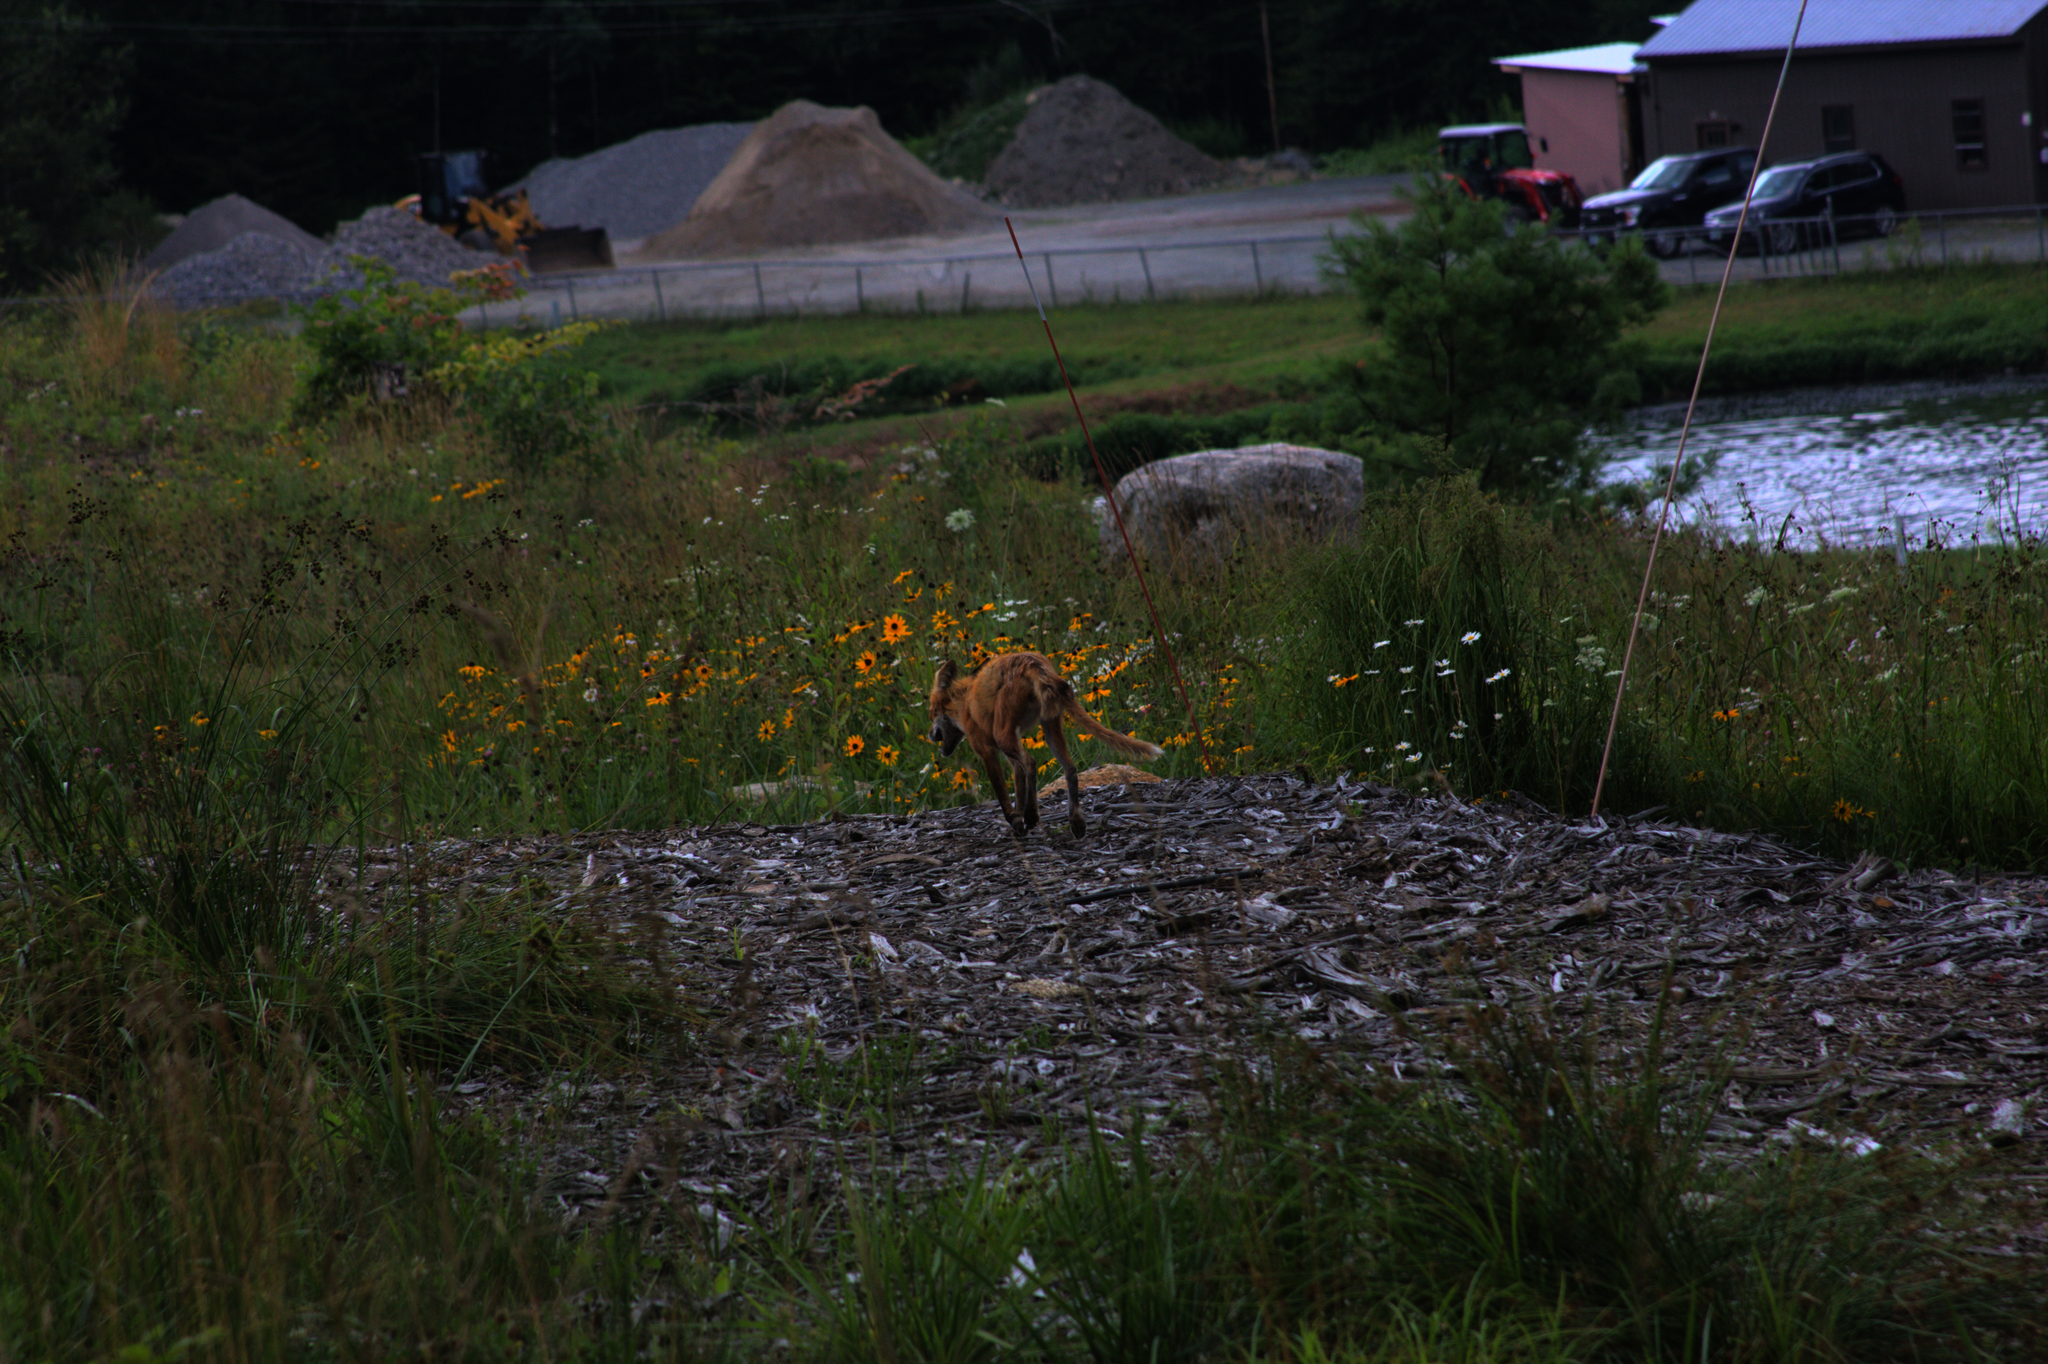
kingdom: Animalia
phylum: Chordata
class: Mammalia
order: Carnivora
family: Canidae
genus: Vulpes
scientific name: Vulpes vulpes
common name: Red fox
